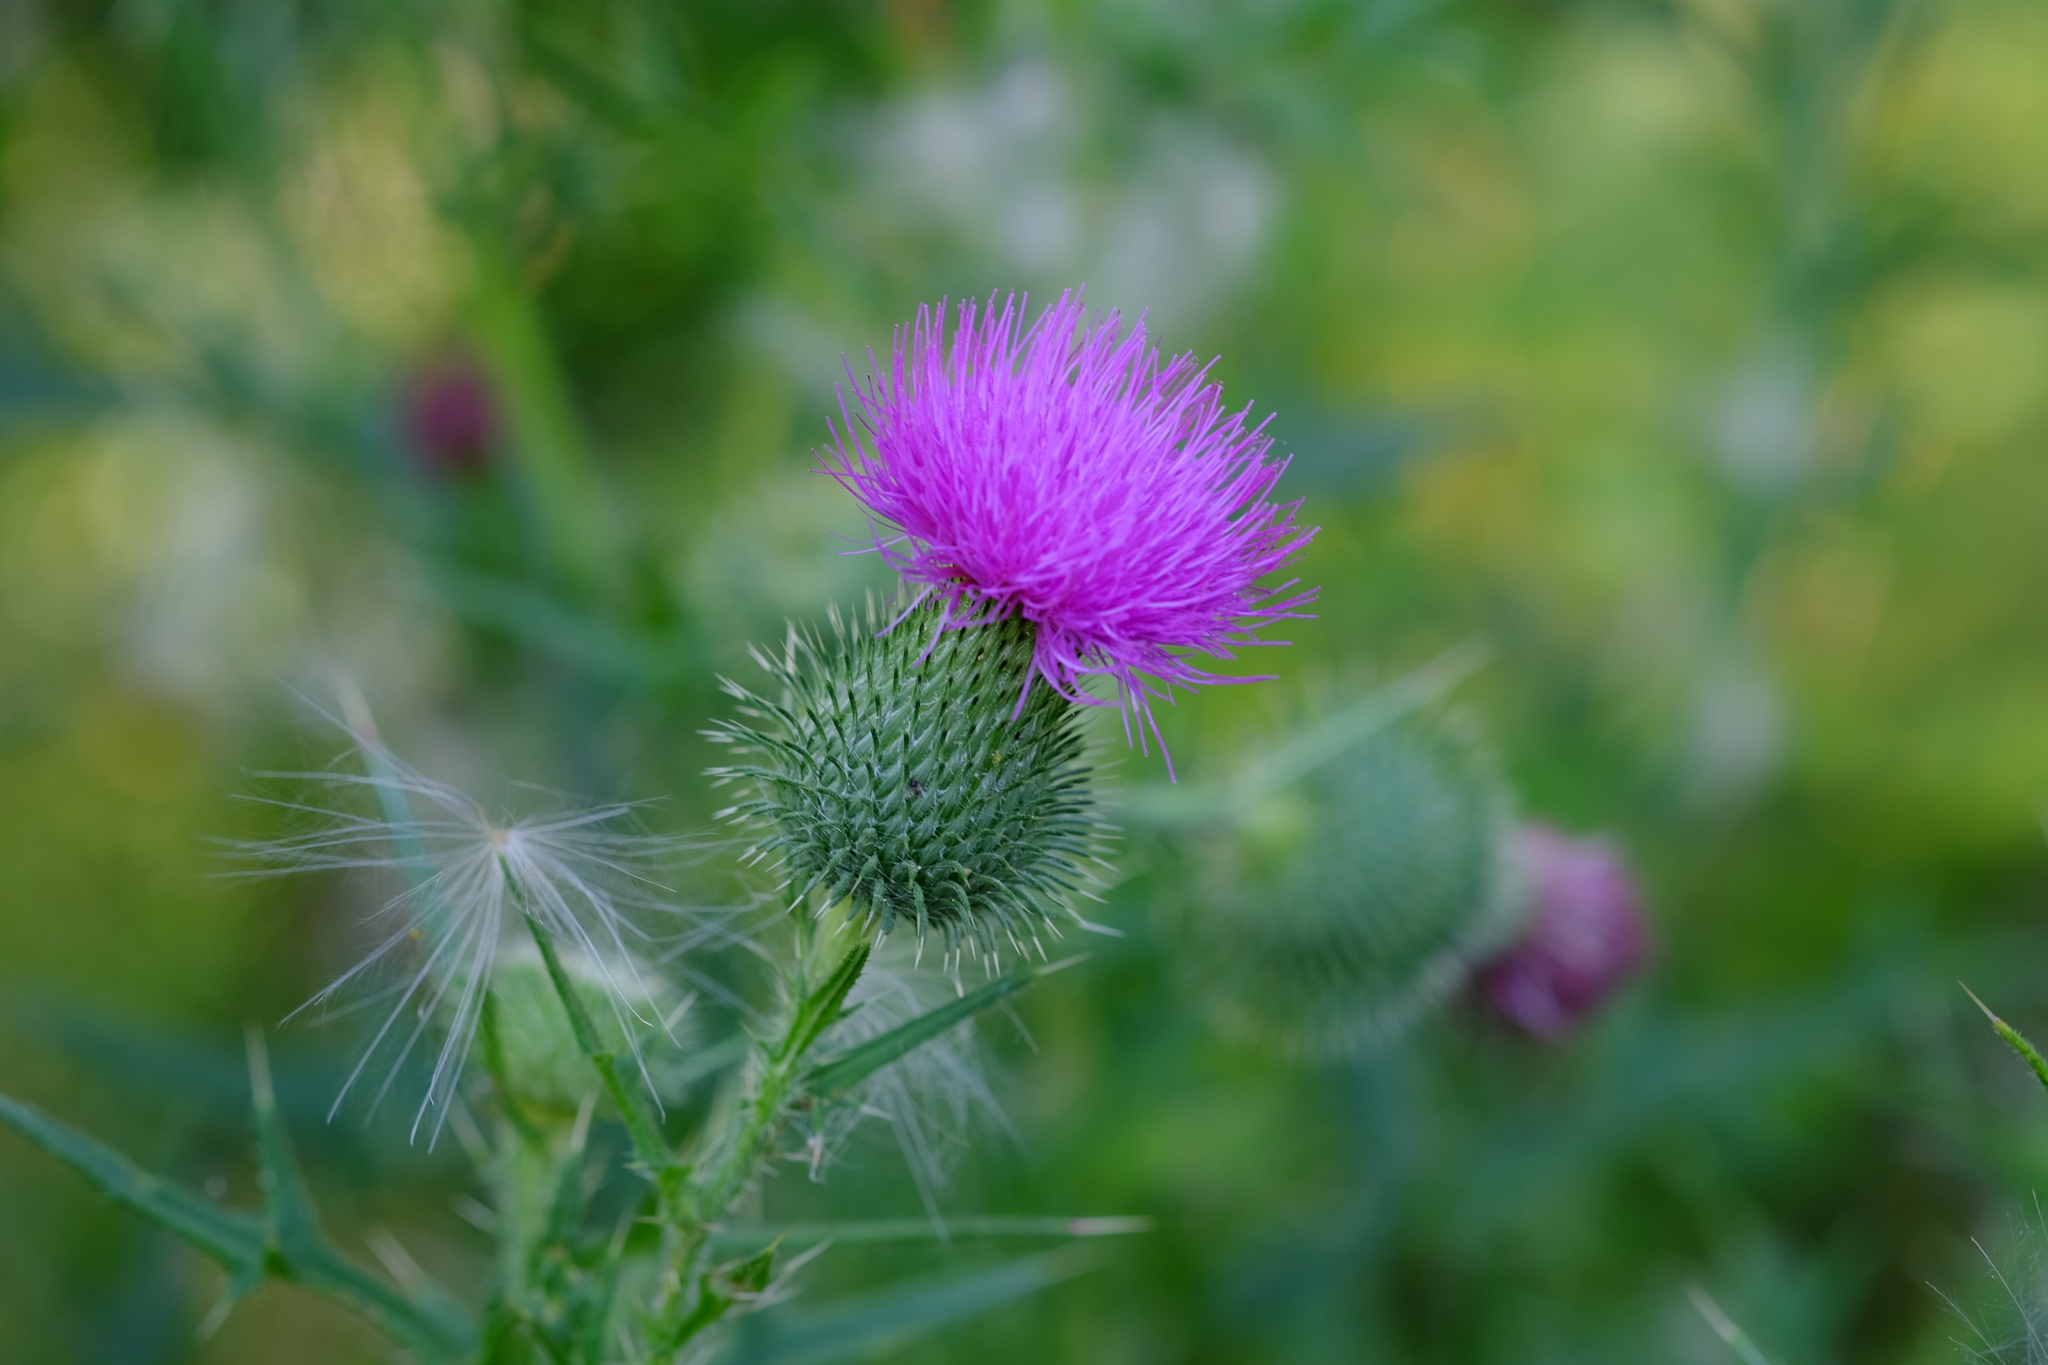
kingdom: Plantae
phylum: Tracheophyta
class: Magnoliopsida
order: Asterales
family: Asteraceae
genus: Cirsium
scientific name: Cirsium vulgare
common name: Bull thistle
